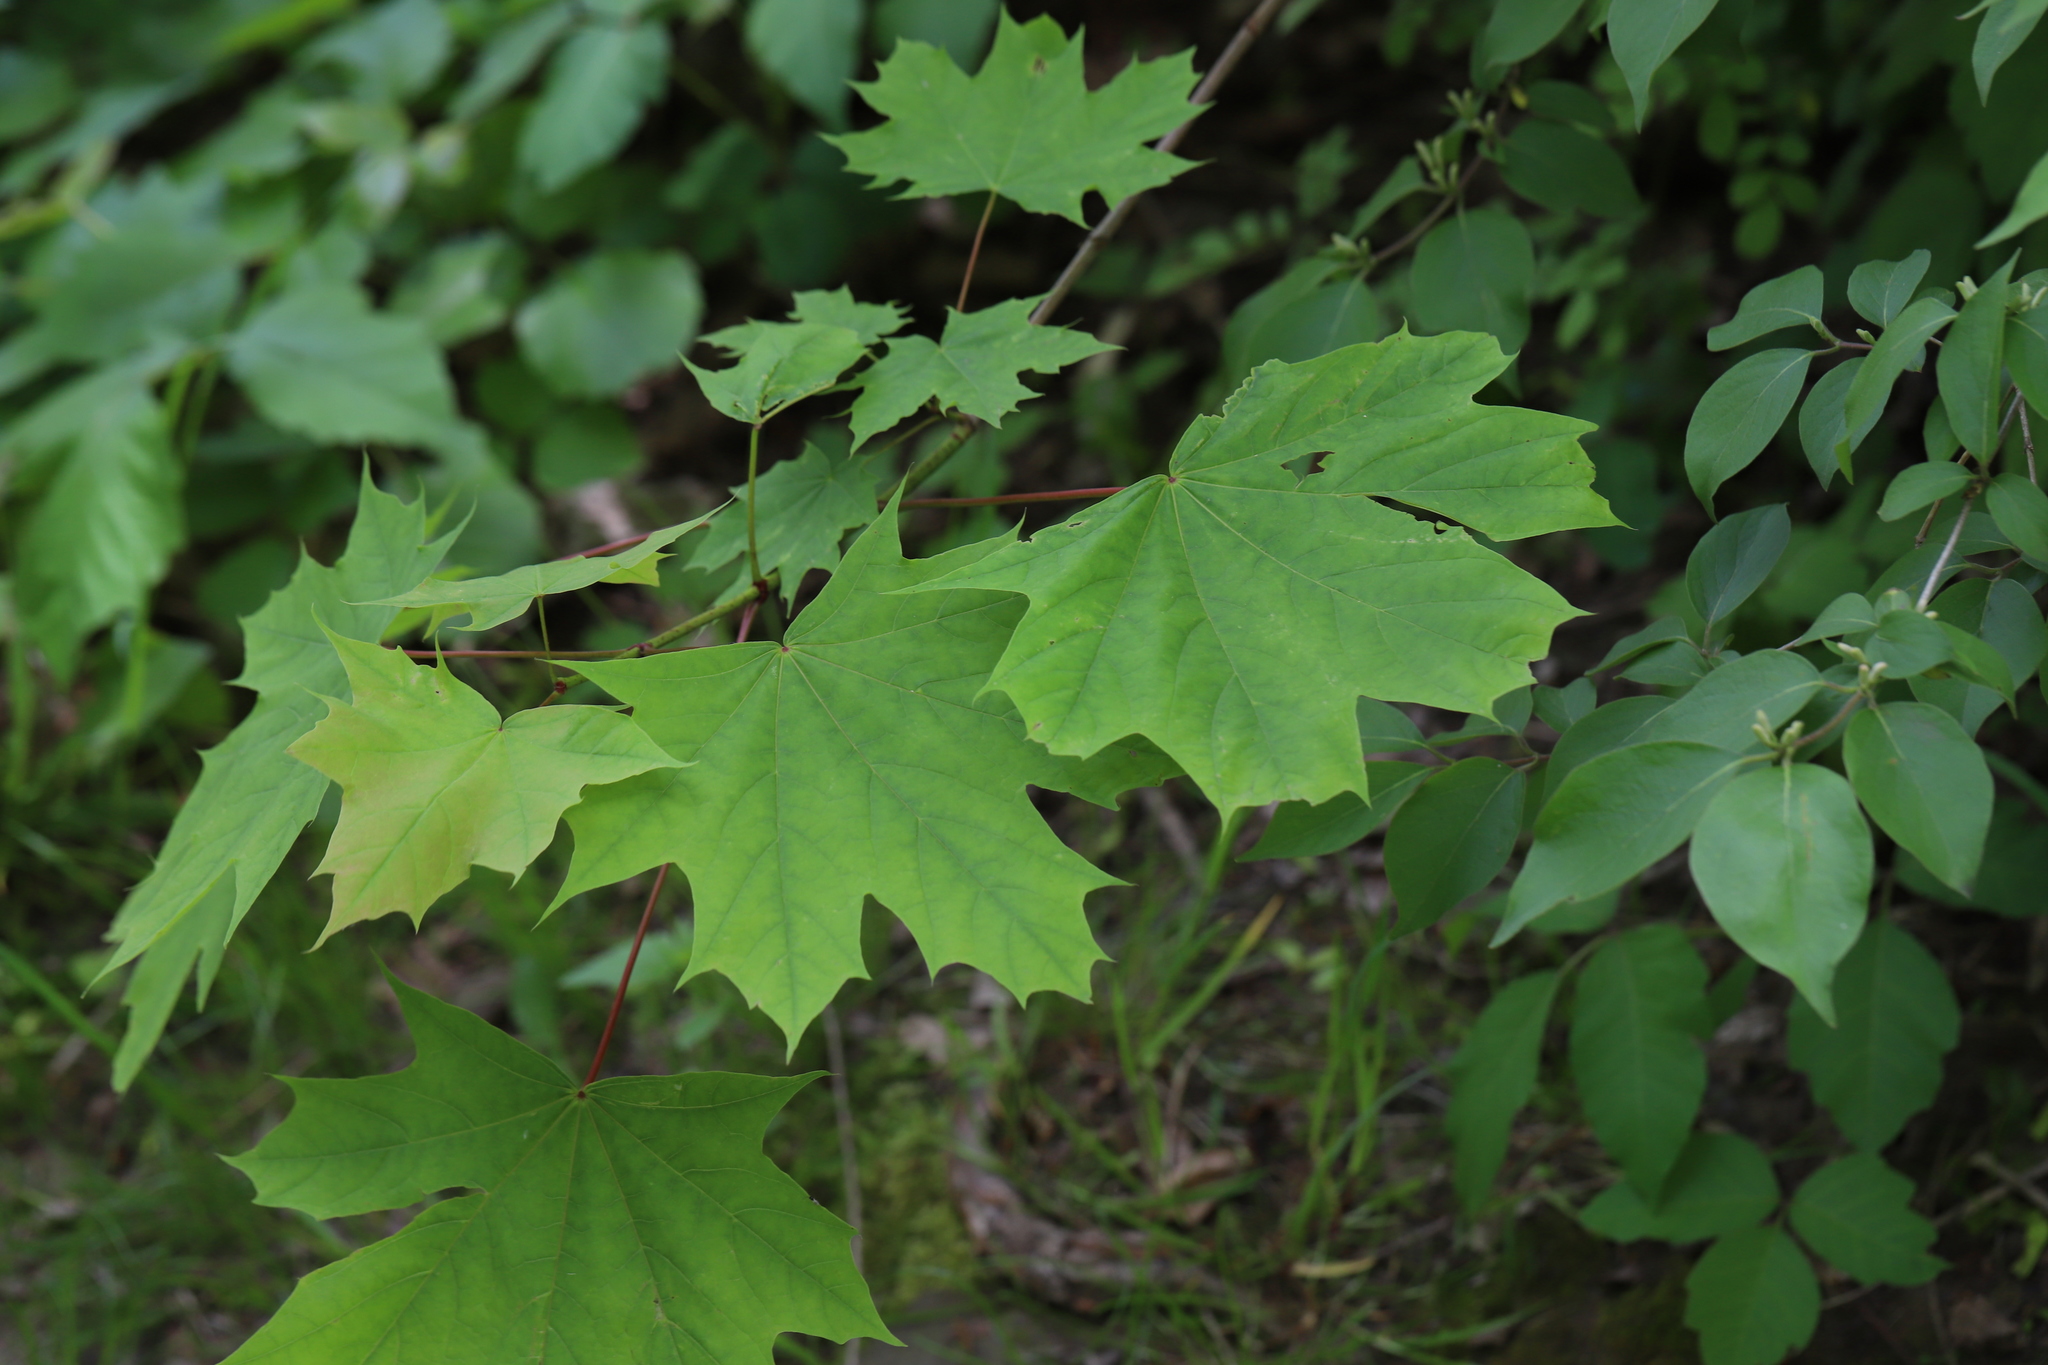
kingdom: Plantae
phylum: Tracheophyta
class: Magnoliopsida
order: Sapindales
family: Sapindaceae
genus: Acer
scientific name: Acer platanoides
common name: Norway maple
